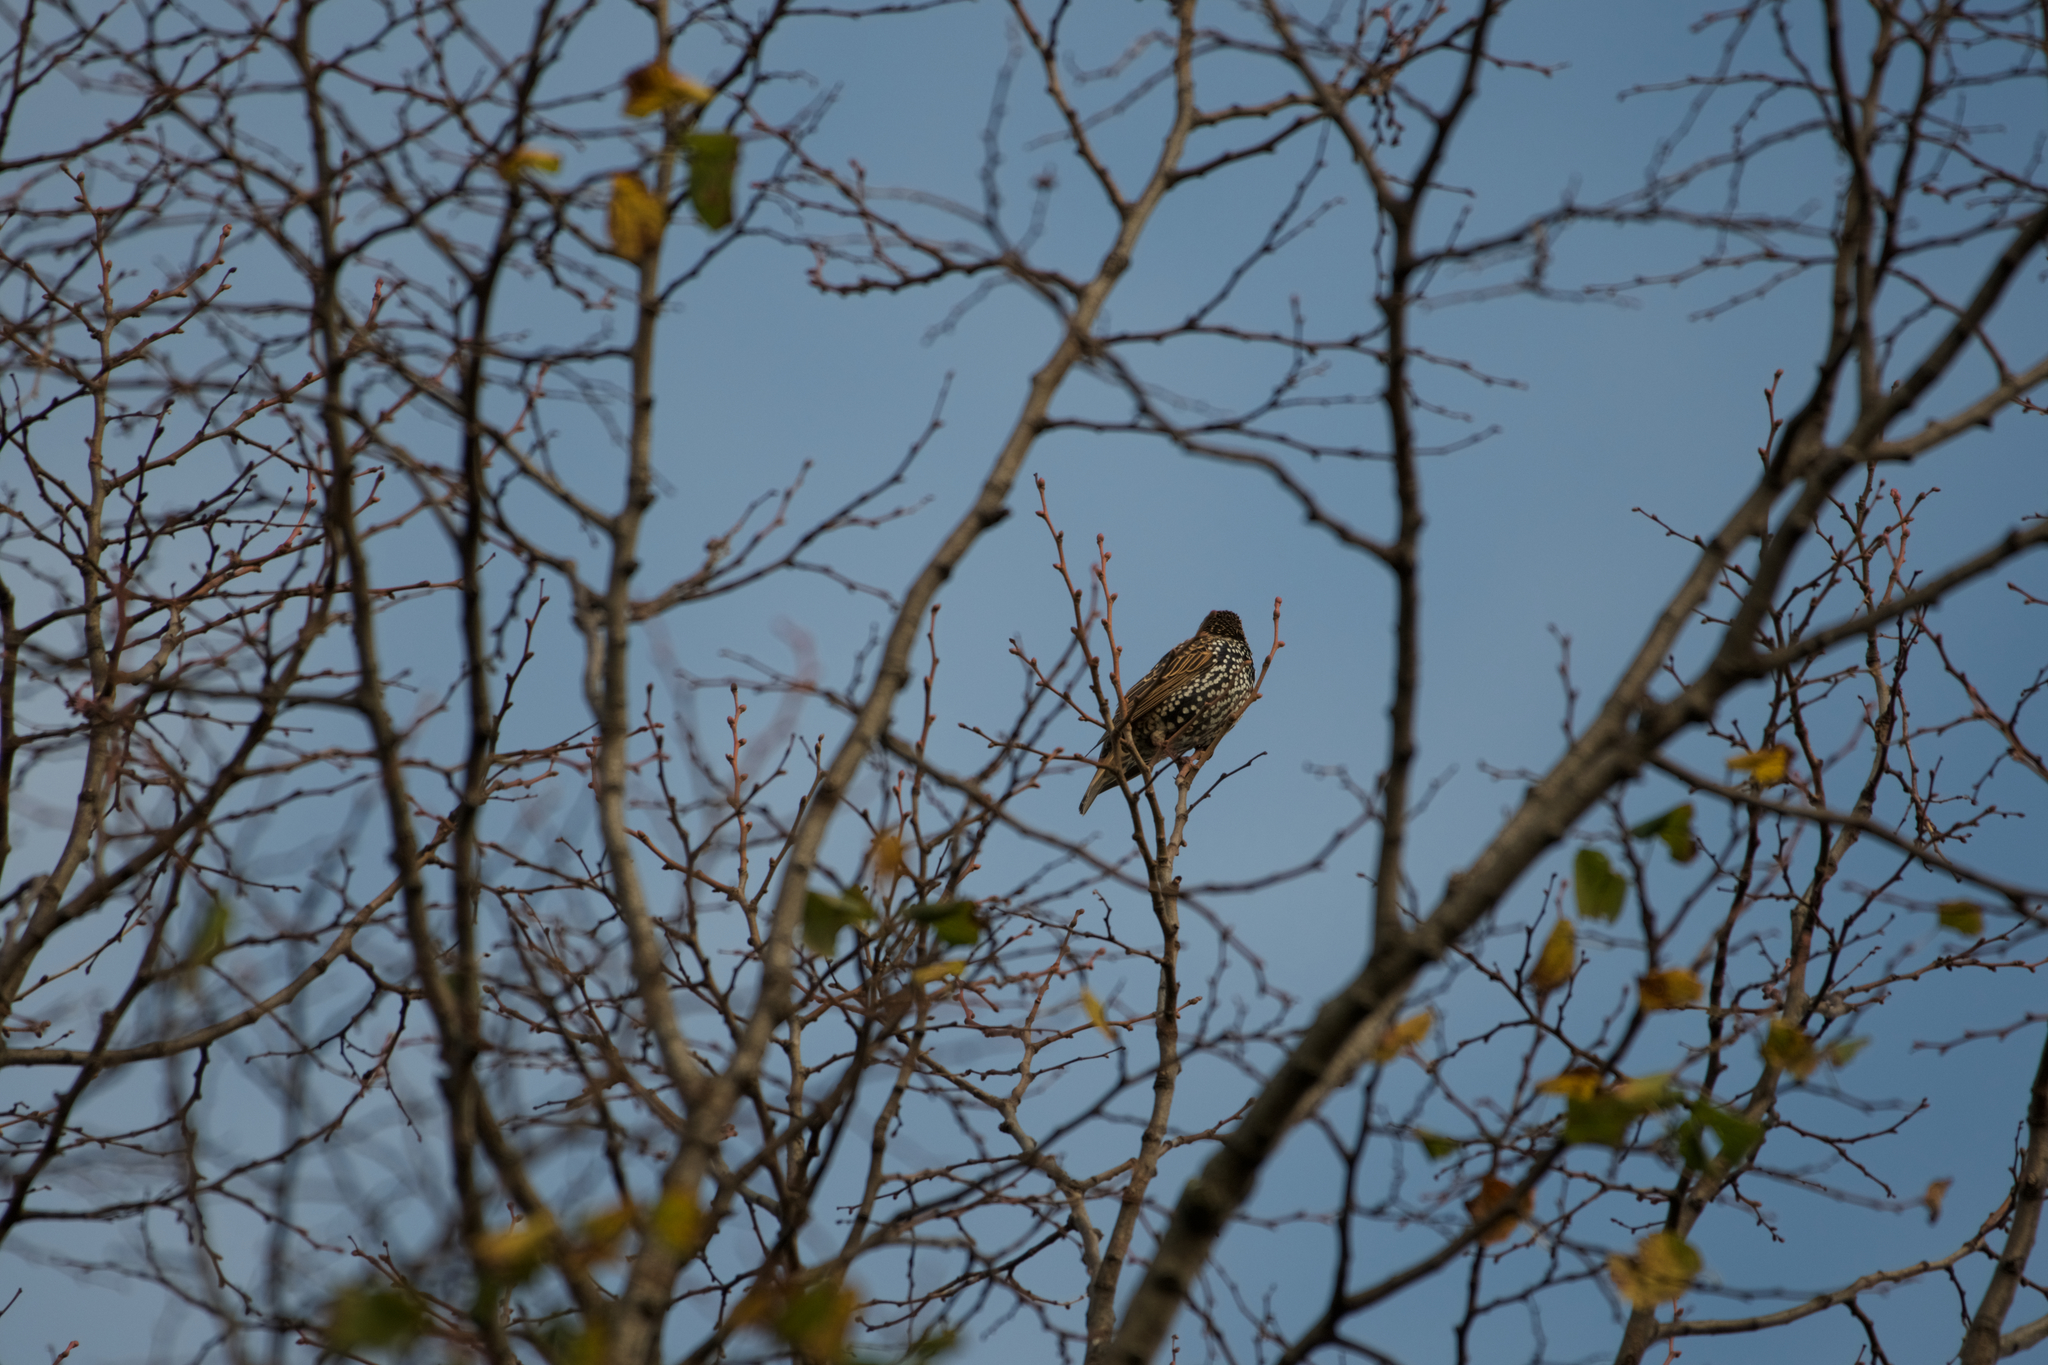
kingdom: Animalia
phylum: Chordata
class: Aves
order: Passeriformes
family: Sturnidae
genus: Sturnus
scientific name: Sturnus vulgaris
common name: Common starling
